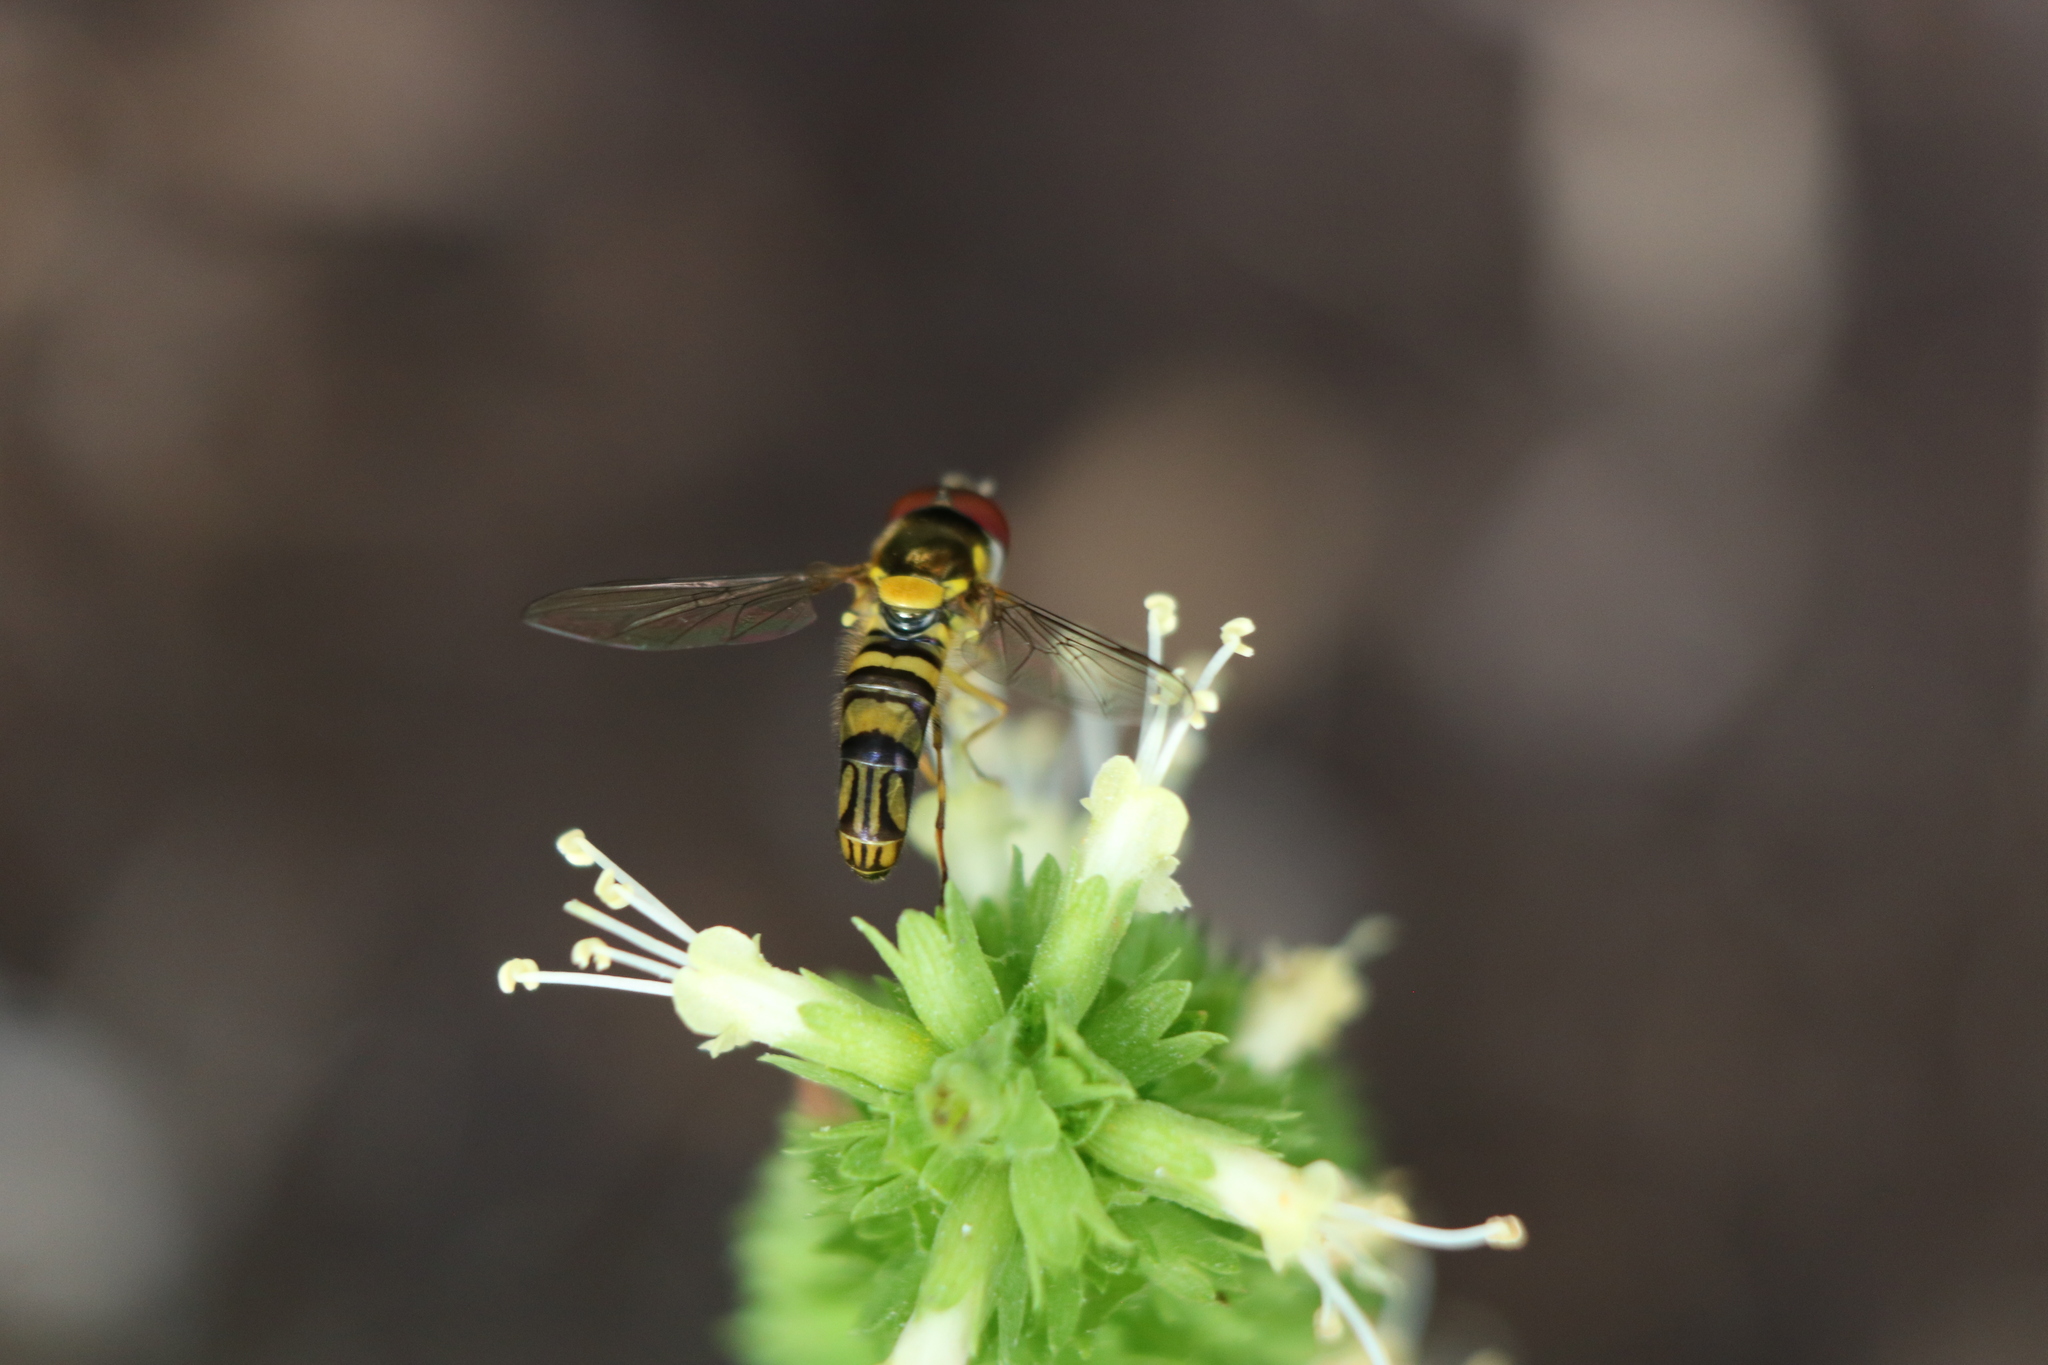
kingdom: Animalia
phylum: Arthropoda
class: Insecta
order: Diptera
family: Syrphidae
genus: Allograpta
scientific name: Allograpta obliqua
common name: Common oblique syrphid
